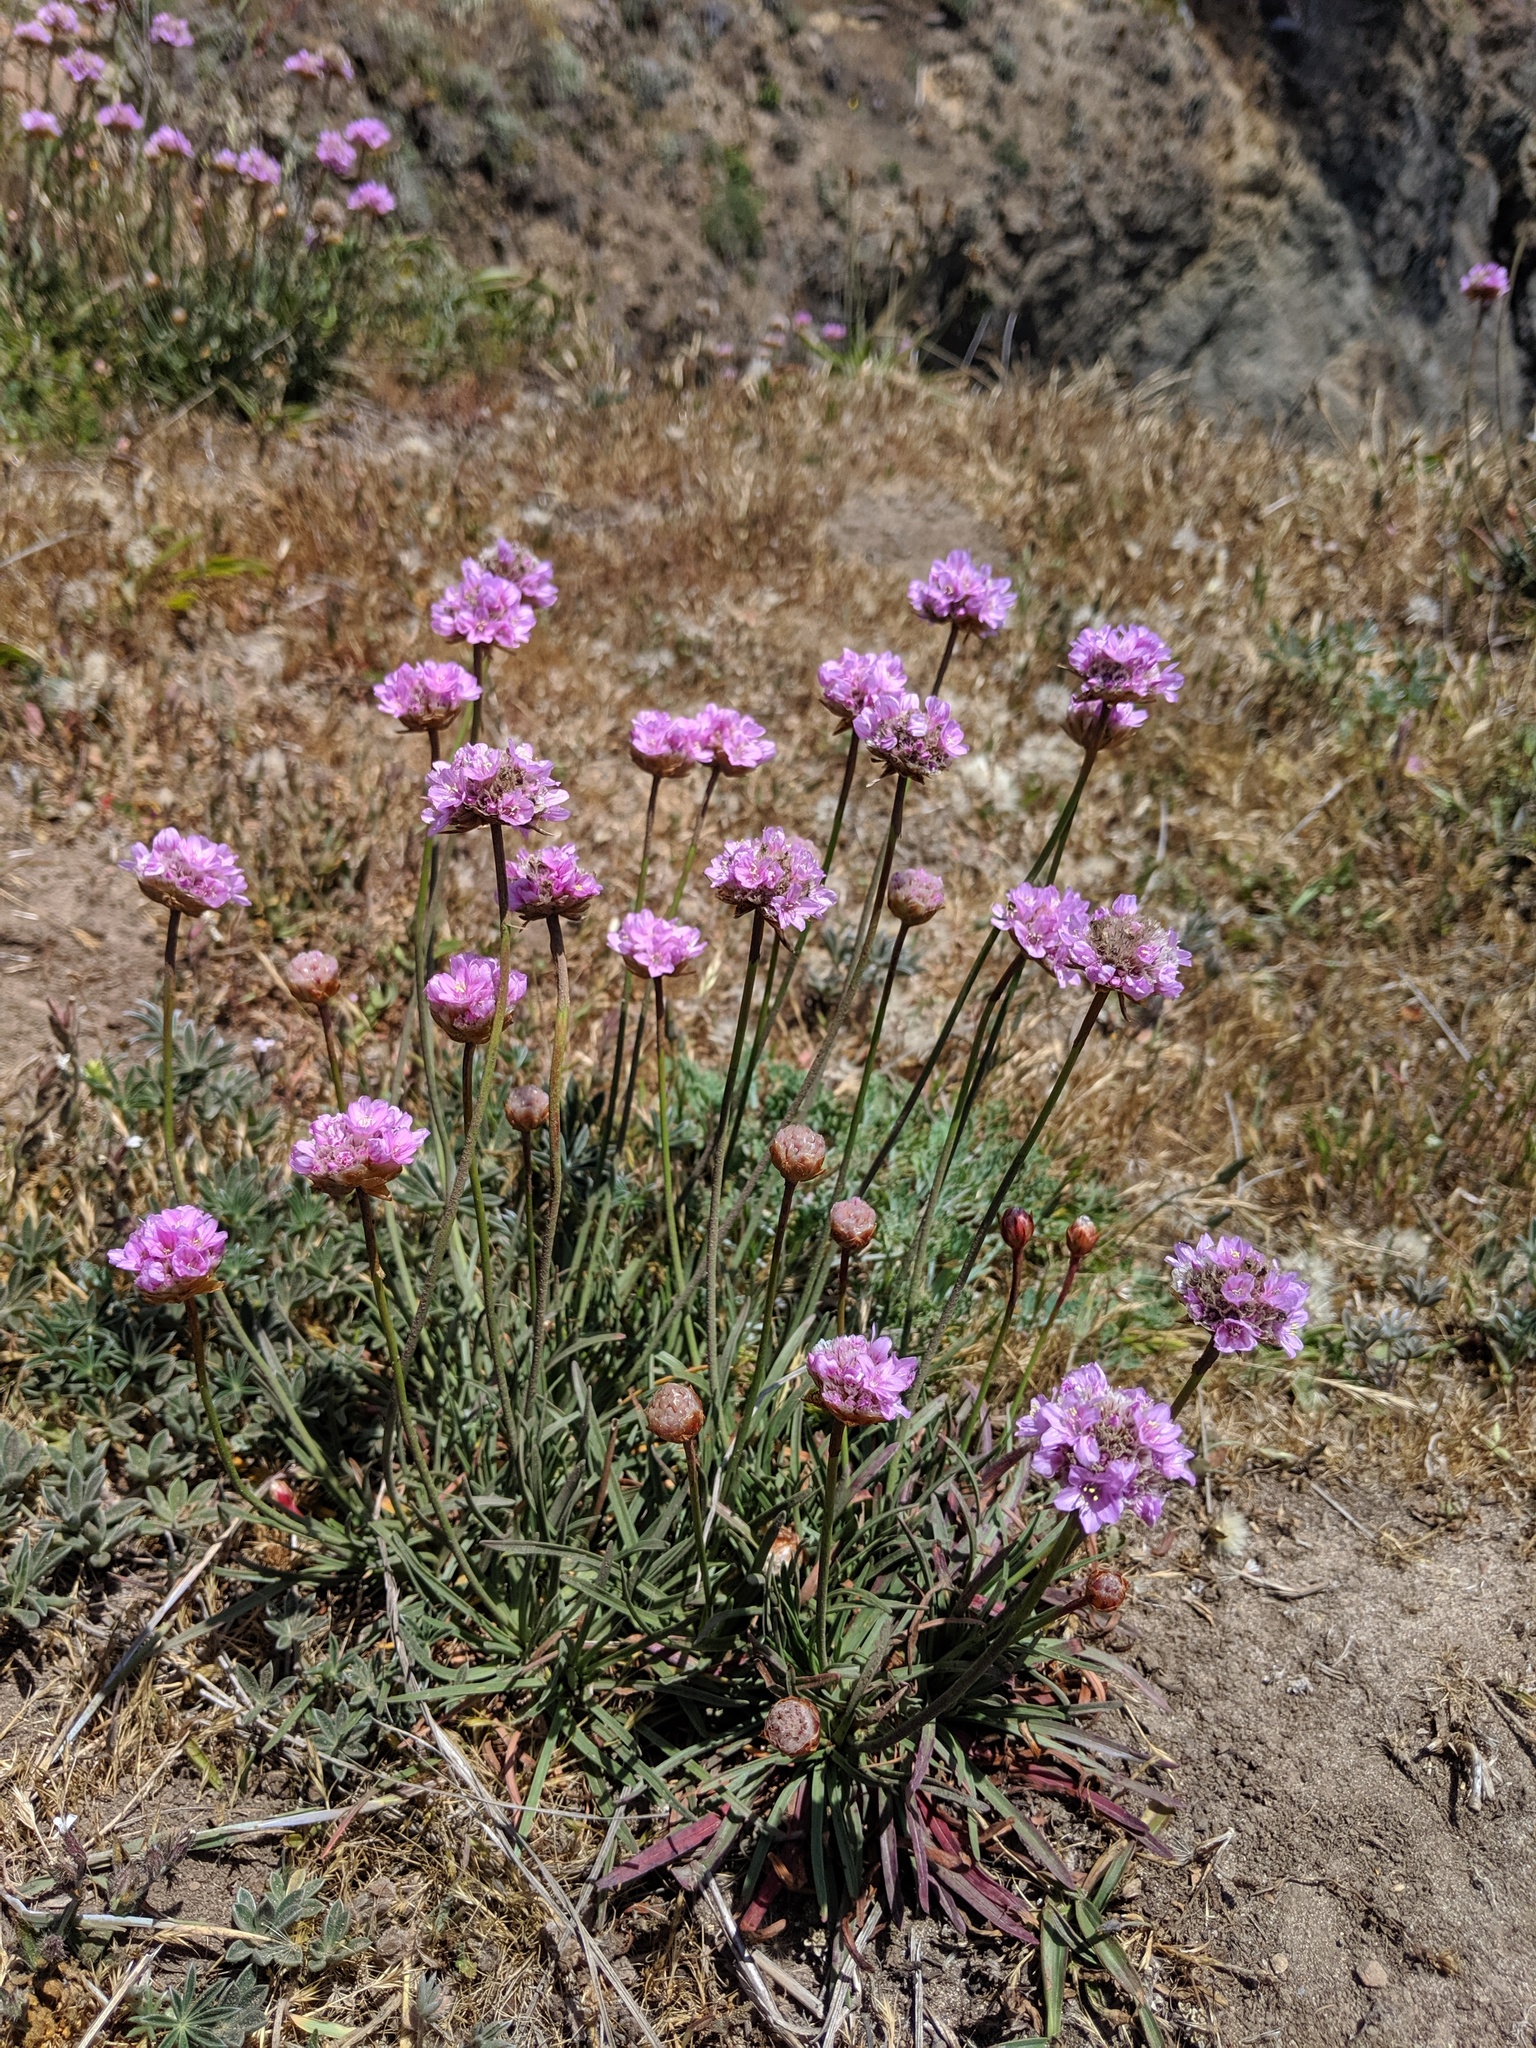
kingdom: Plantae
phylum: Tracheophyta
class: Magnoliopsida
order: Caryophyllales
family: Plumbaginaceae
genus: Armeria
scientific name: Armeria maritima
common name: Thrift
